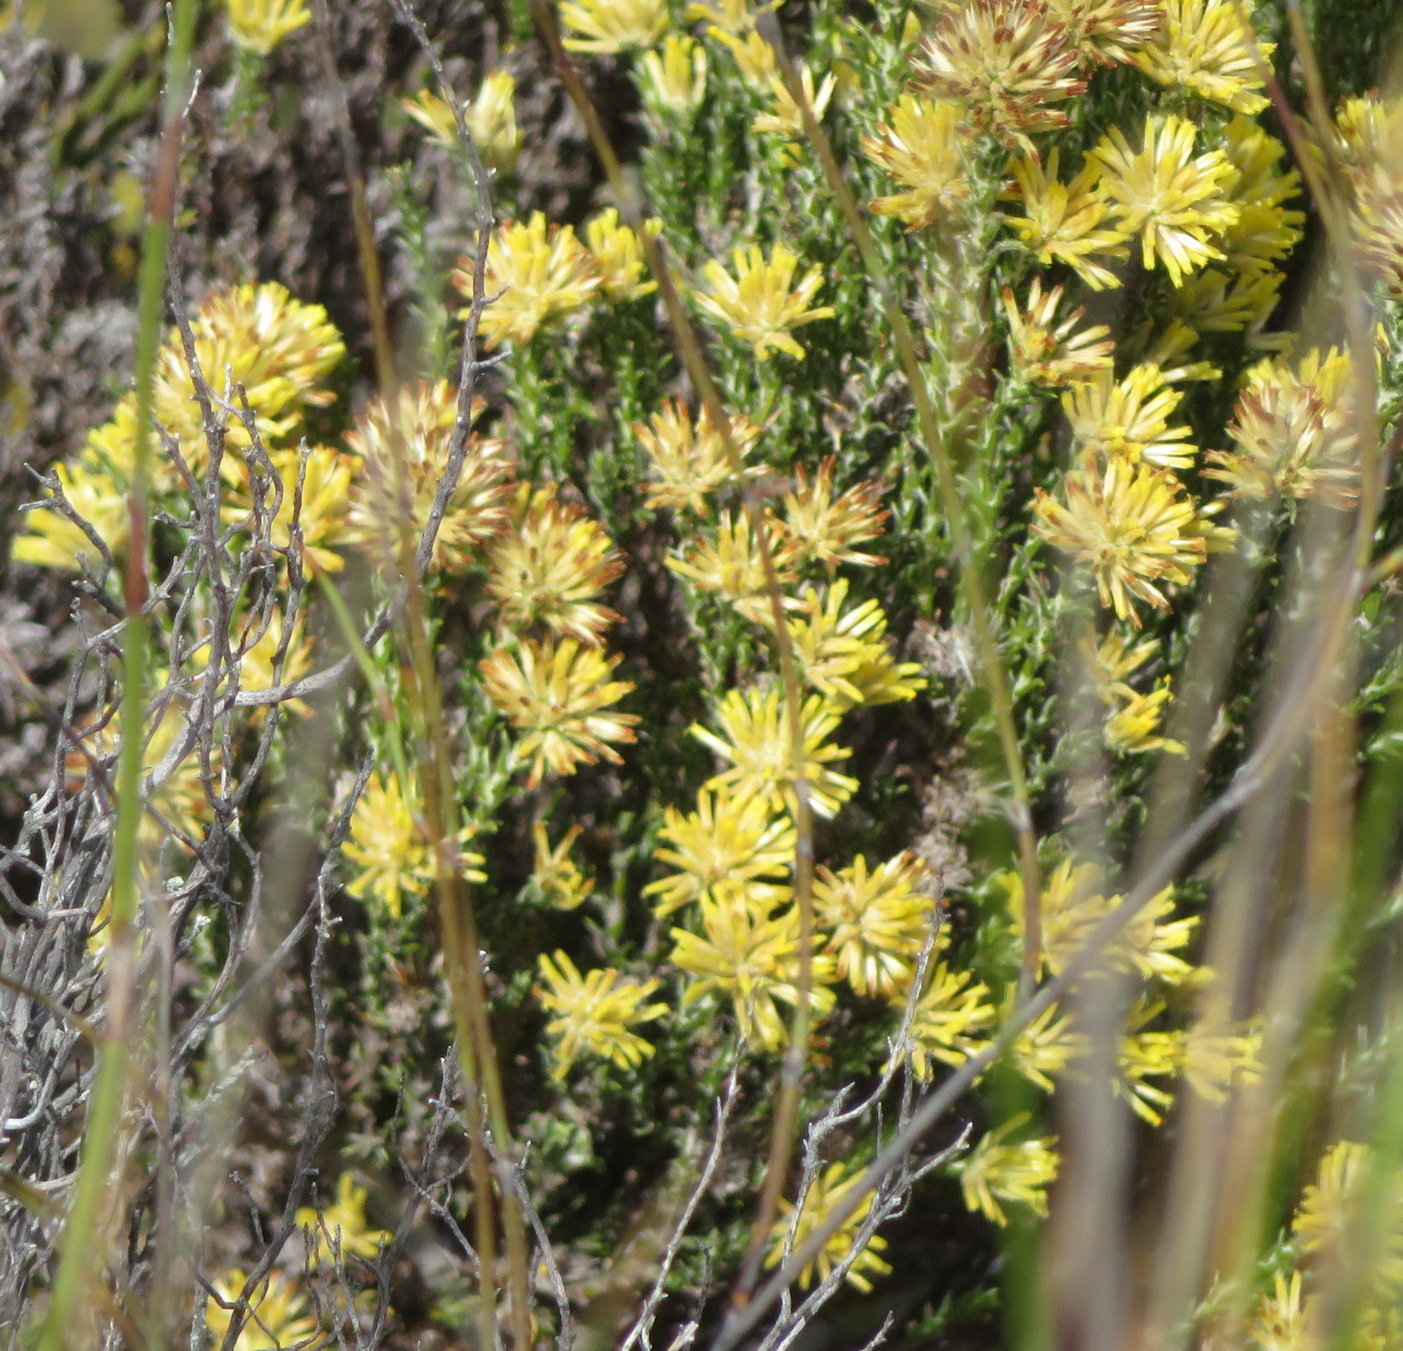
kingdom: Plantae
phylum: Tracheophyta
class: Magnoliopsida
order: Asterales
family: Asteraceae
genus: Seriphium
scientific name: Seriphium spirale
